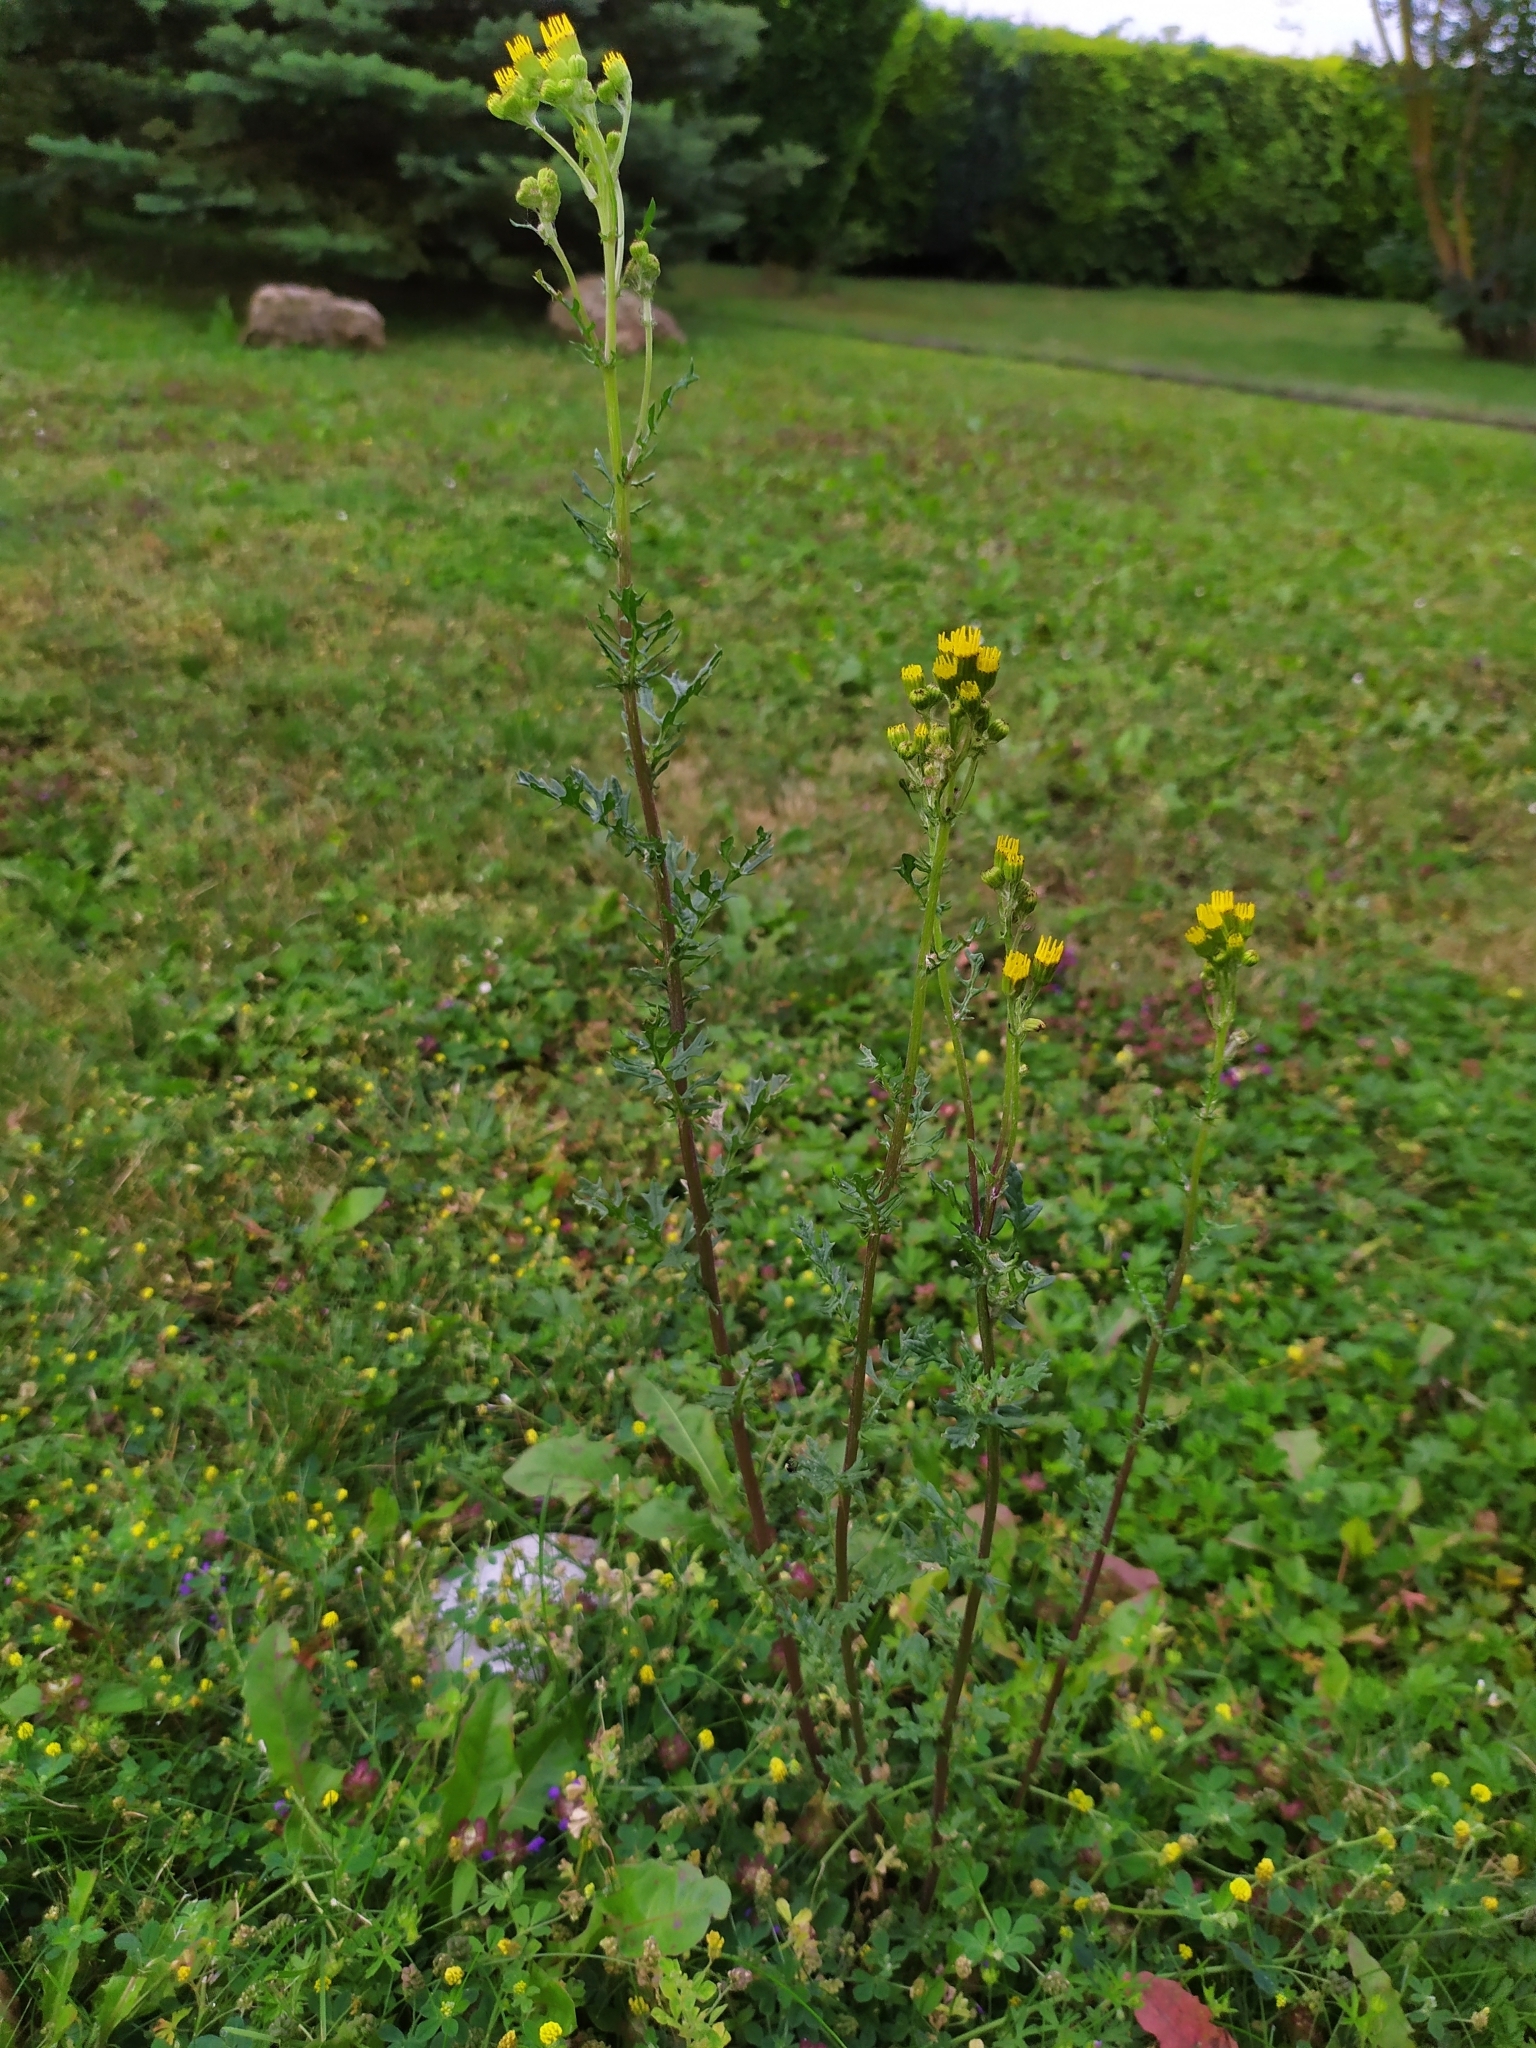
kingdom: Plantae
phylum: Tracheophyta
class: Magnoliopsida
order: Asterales
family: Asteraceae
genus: Jacobaea
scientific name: Jacobaea vulgaris
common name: Stinking willie
